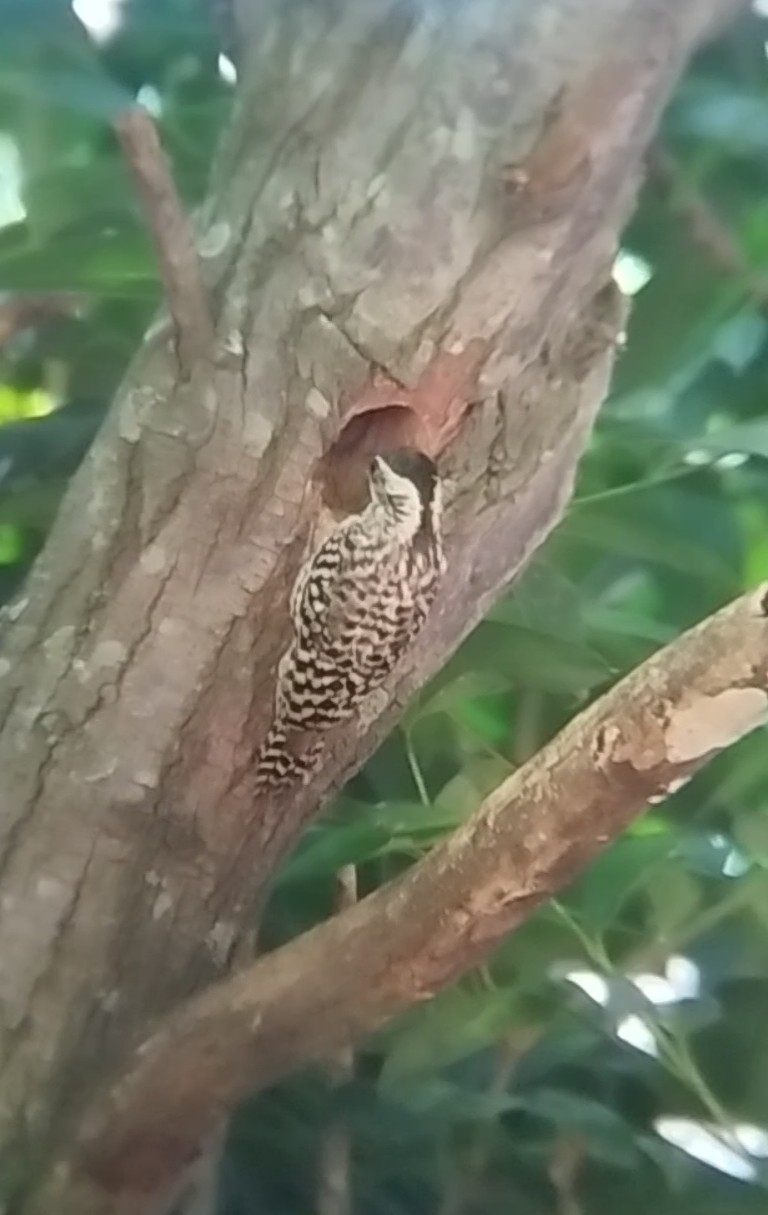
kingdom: Animalia
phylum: Chordata
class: Aves
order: Piciformes
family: Picidae
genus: Veniliornis
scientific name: Veniliornis mixtus
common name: Checkered woodpecker
